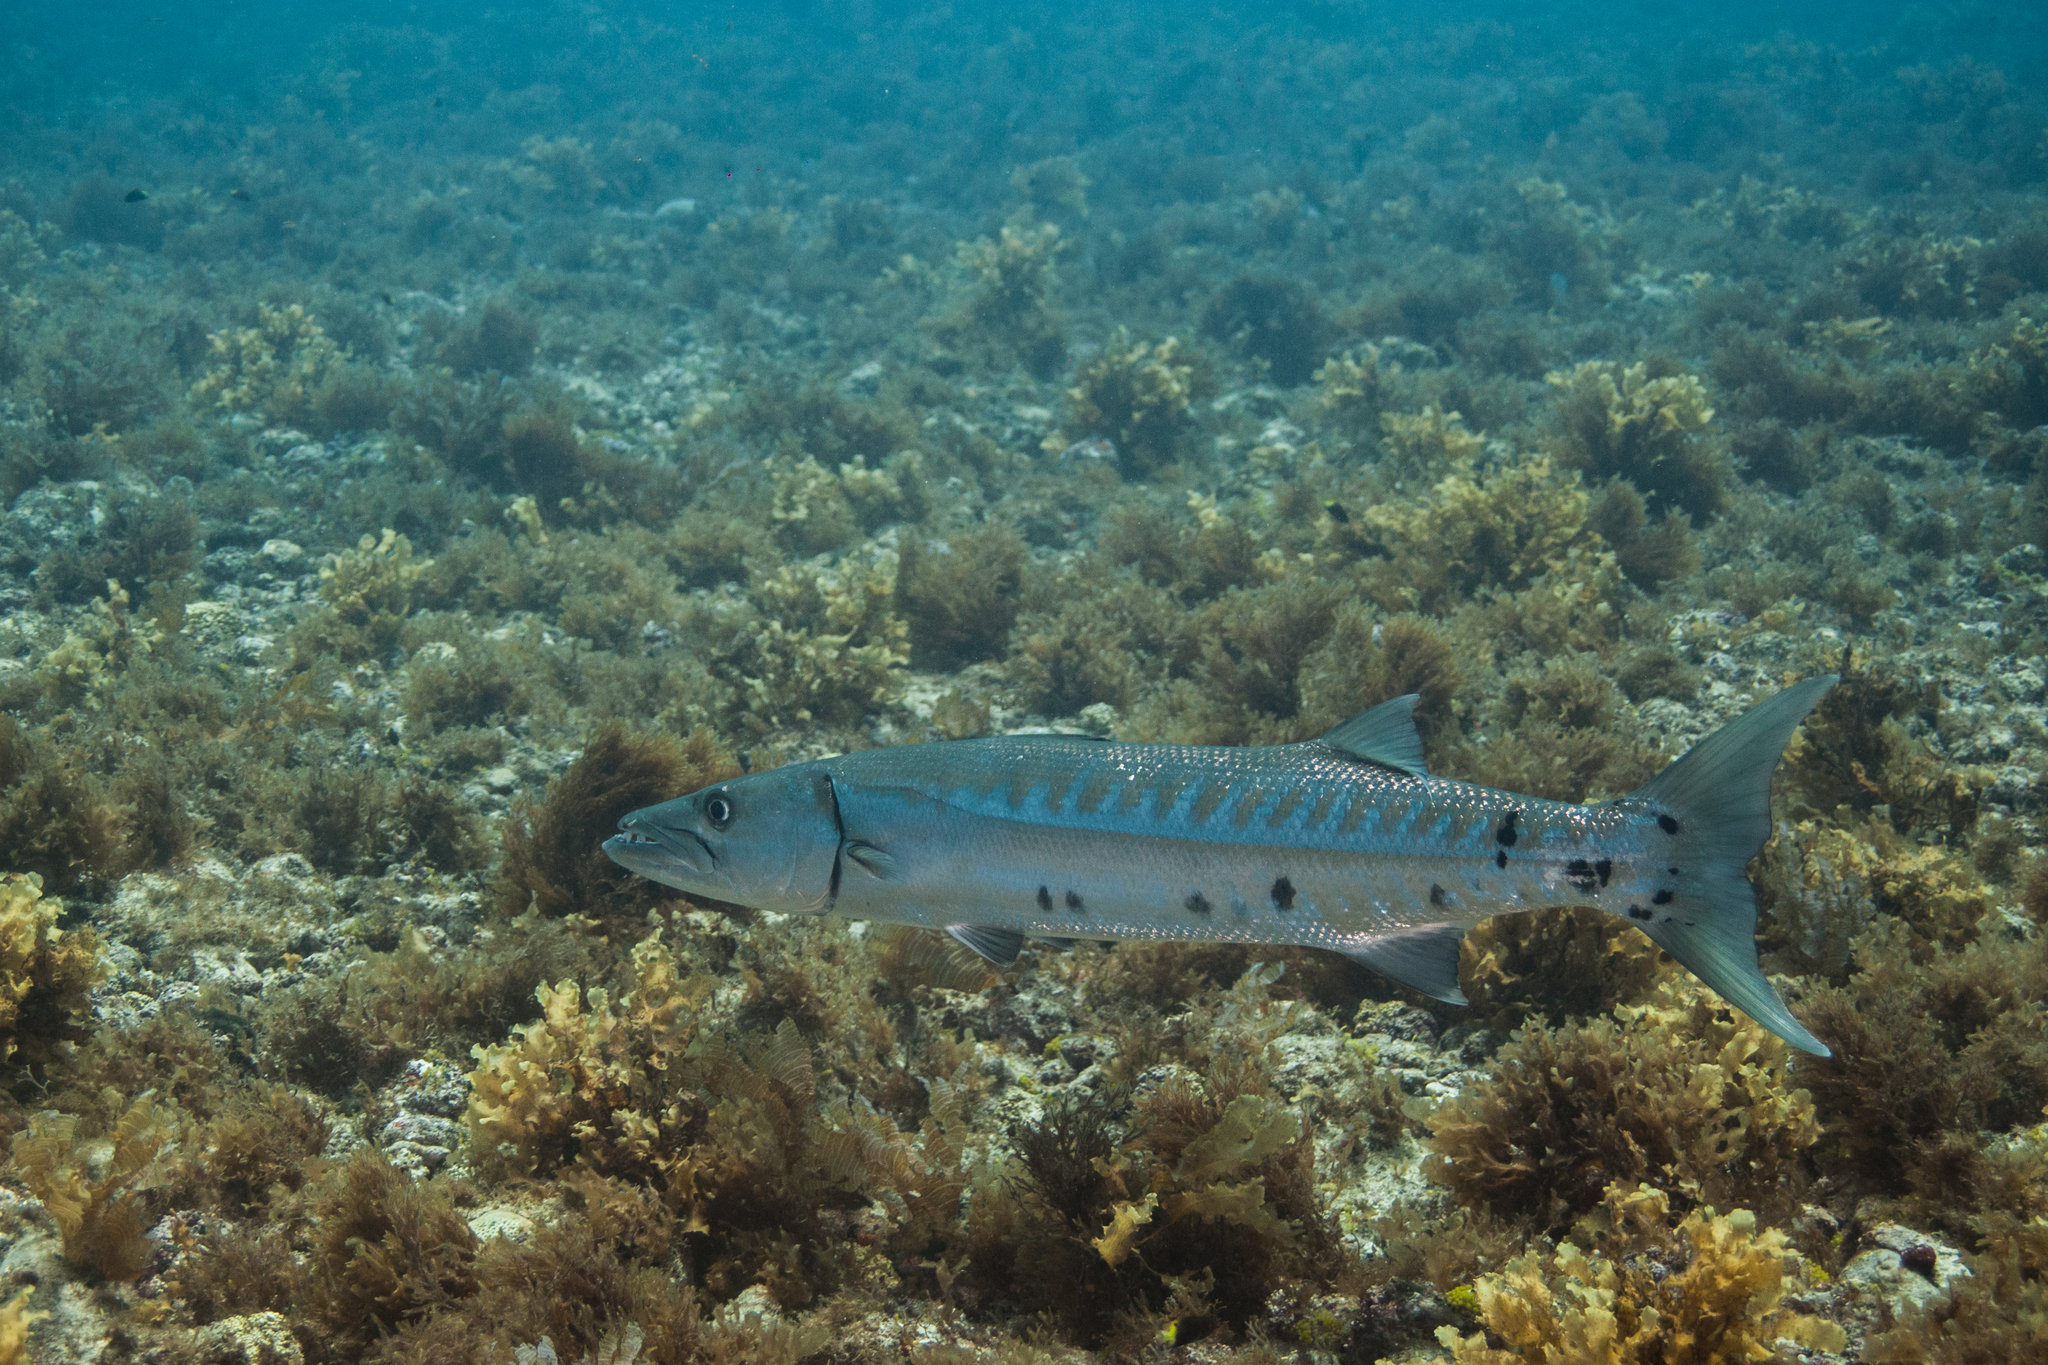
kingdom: Animalia
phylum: Chordata
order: Perciformes
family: Sphyraenidae
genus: Sphyraena
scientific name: Sphyraena barracuda
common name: Great barracuda
